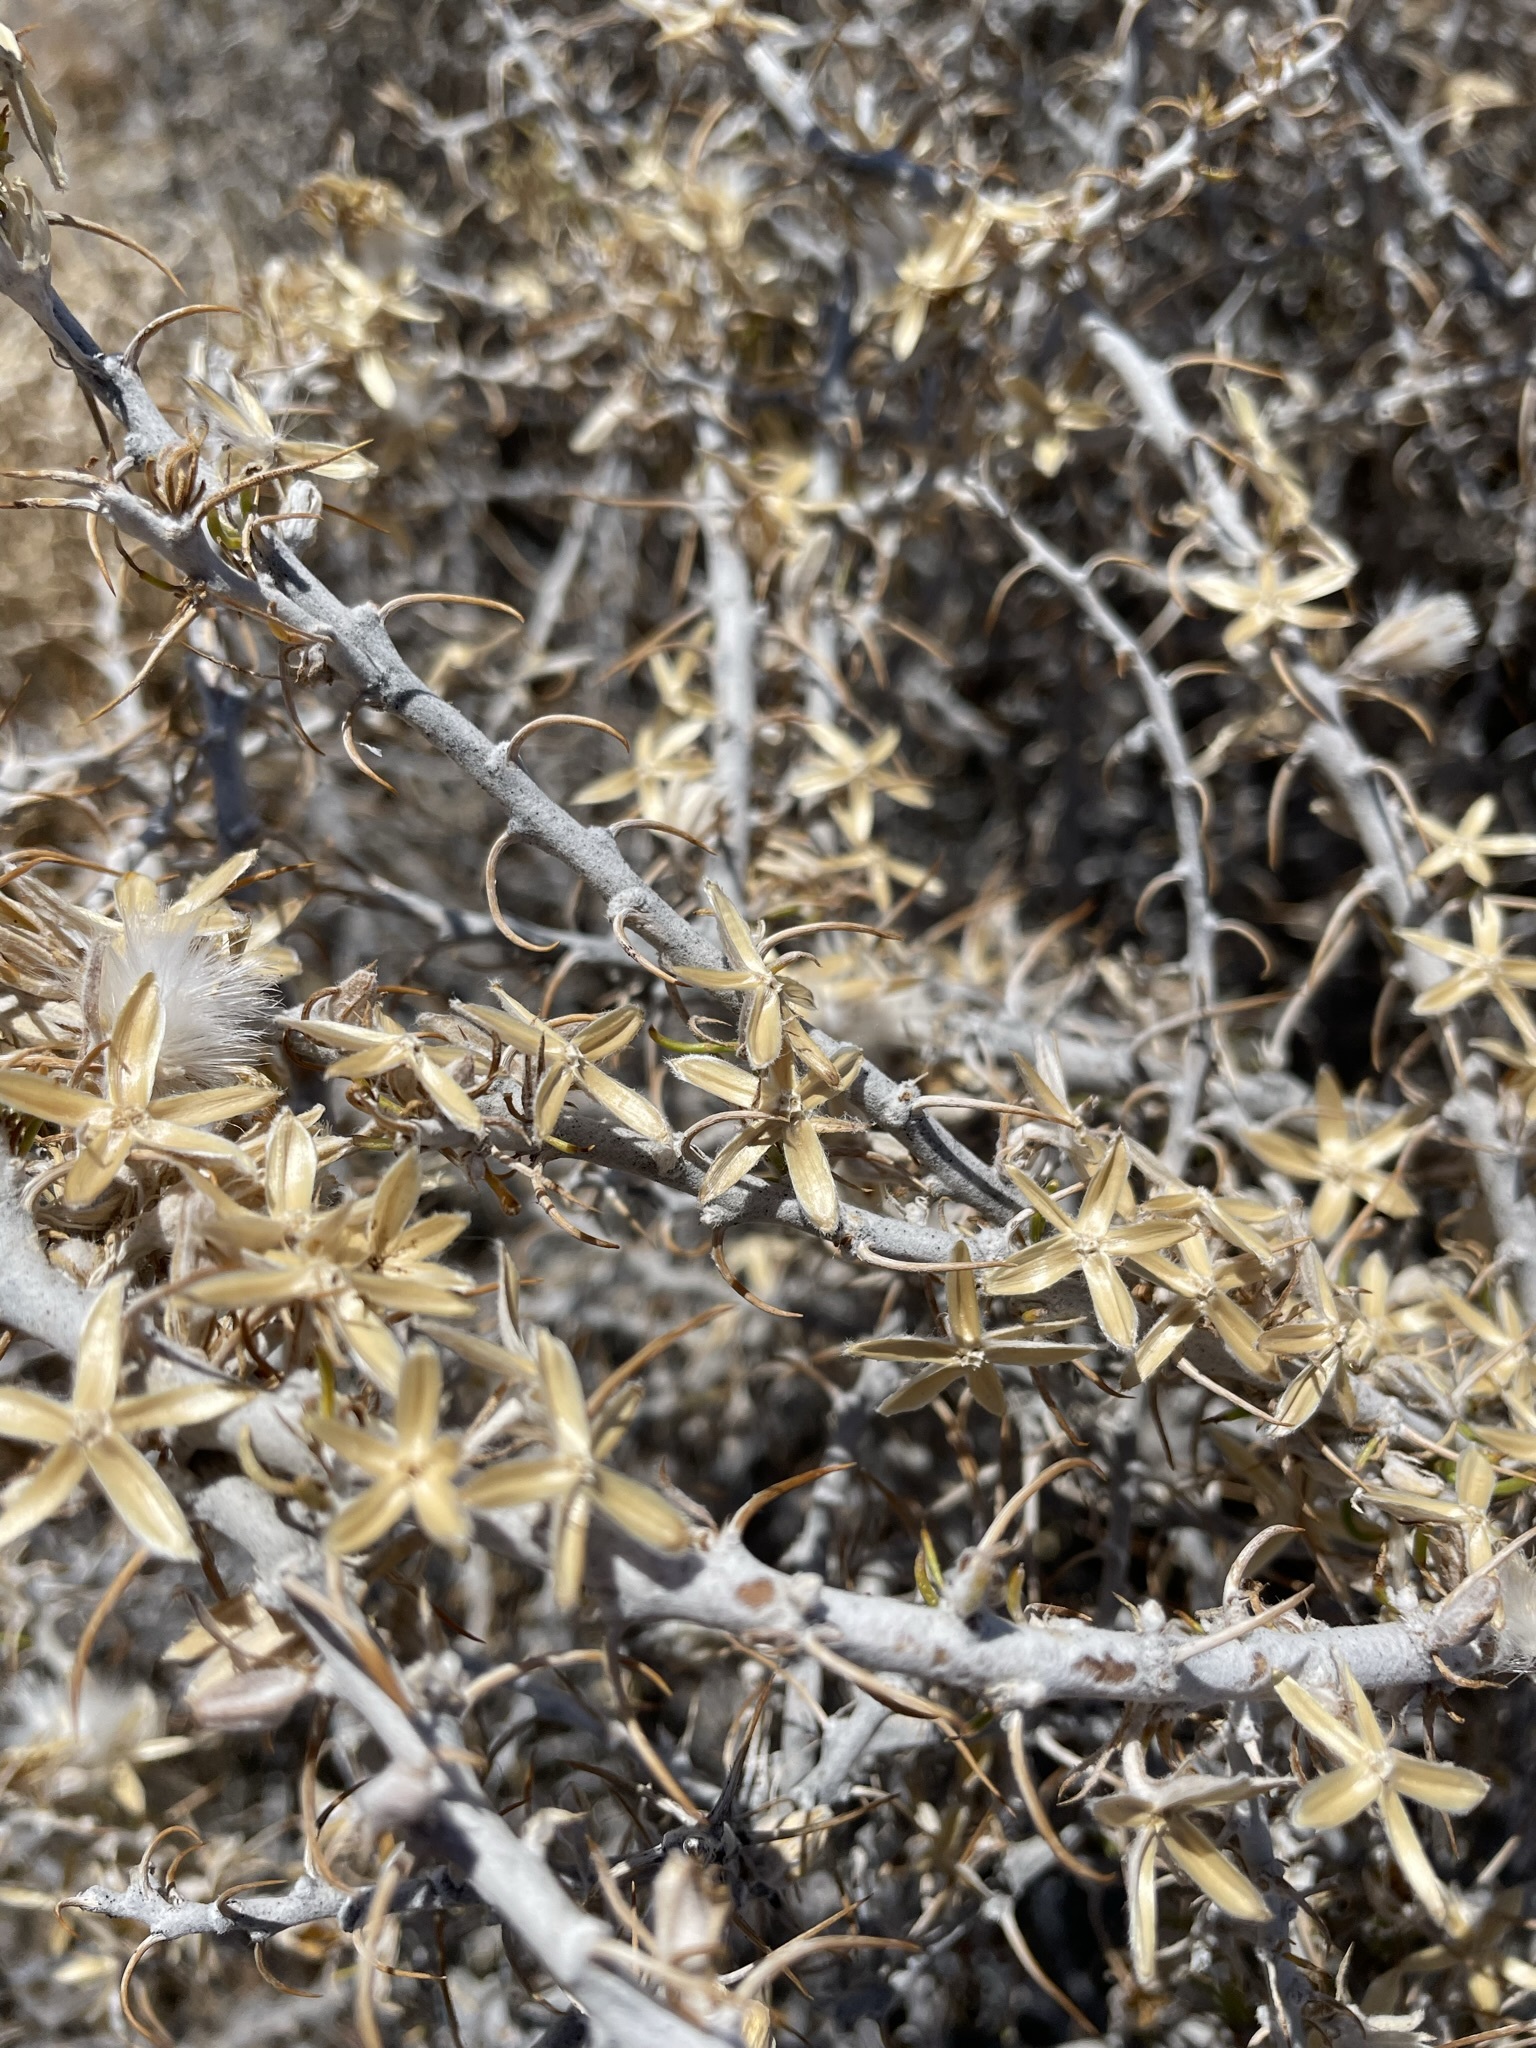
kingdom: Plantae
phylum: Tracheophyta
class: Magnoliopsida
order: Asterales
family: Asteraceae
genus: Tetradymia
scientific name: Tetradymia spinosa
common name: Thorny horsebrush
